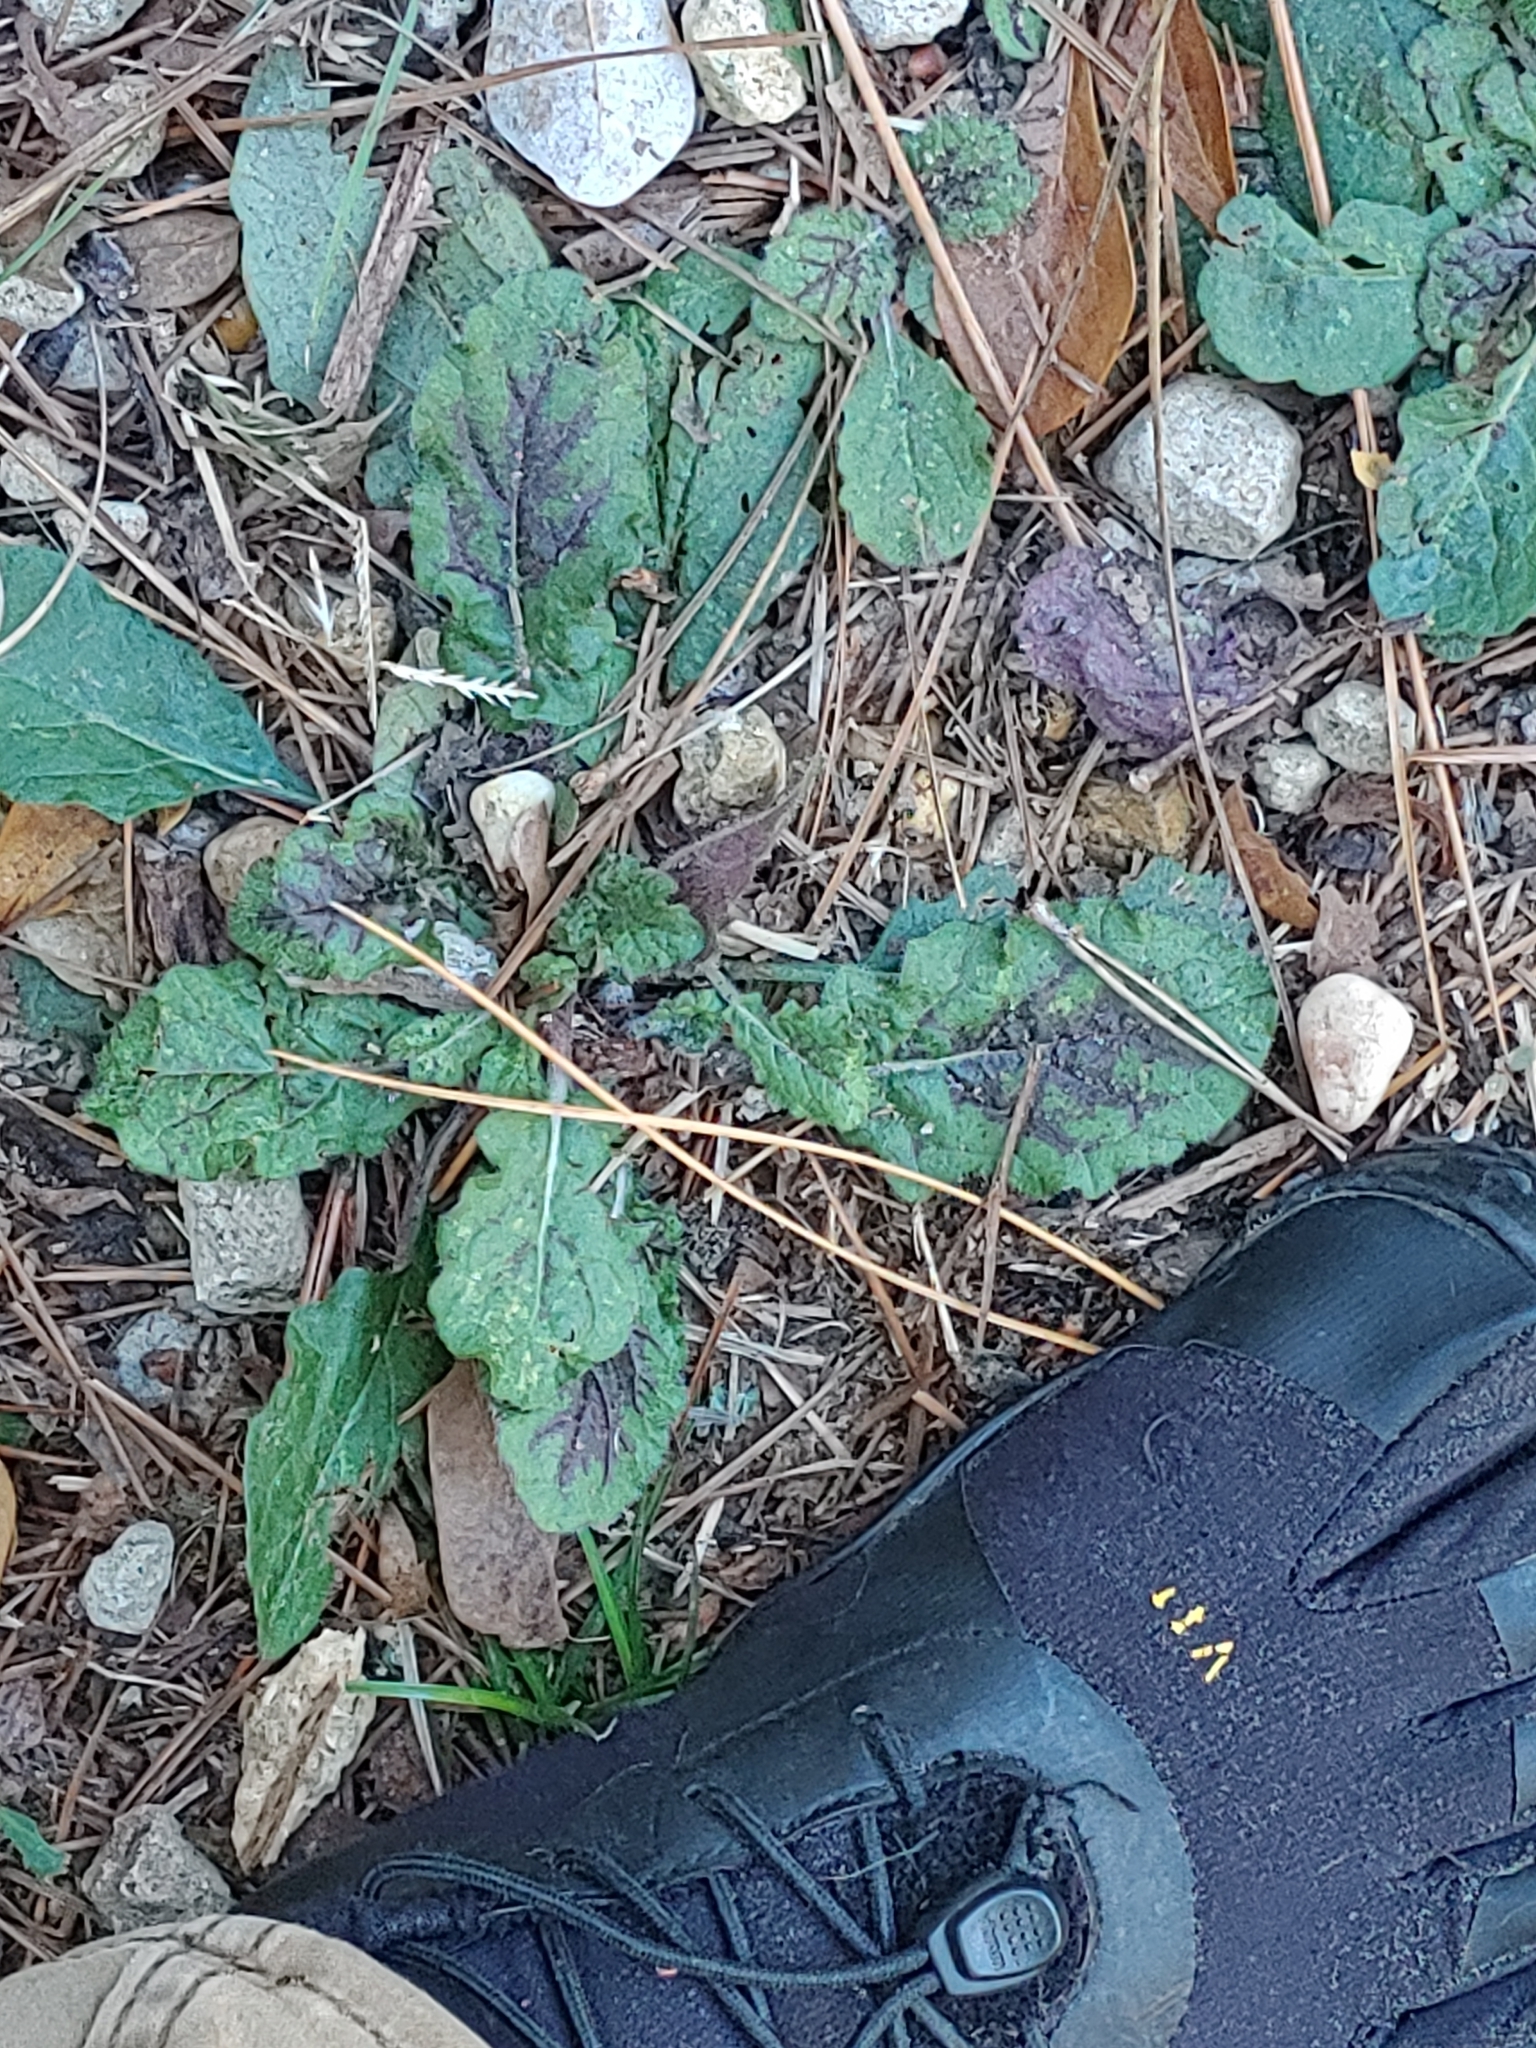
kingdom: Plantae
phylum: Tracheophyta
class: Magnoliopsida
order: Lamiales
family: Lamiaceae
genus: Salvia
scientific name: Salvia lyrata
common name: Cancerweed
